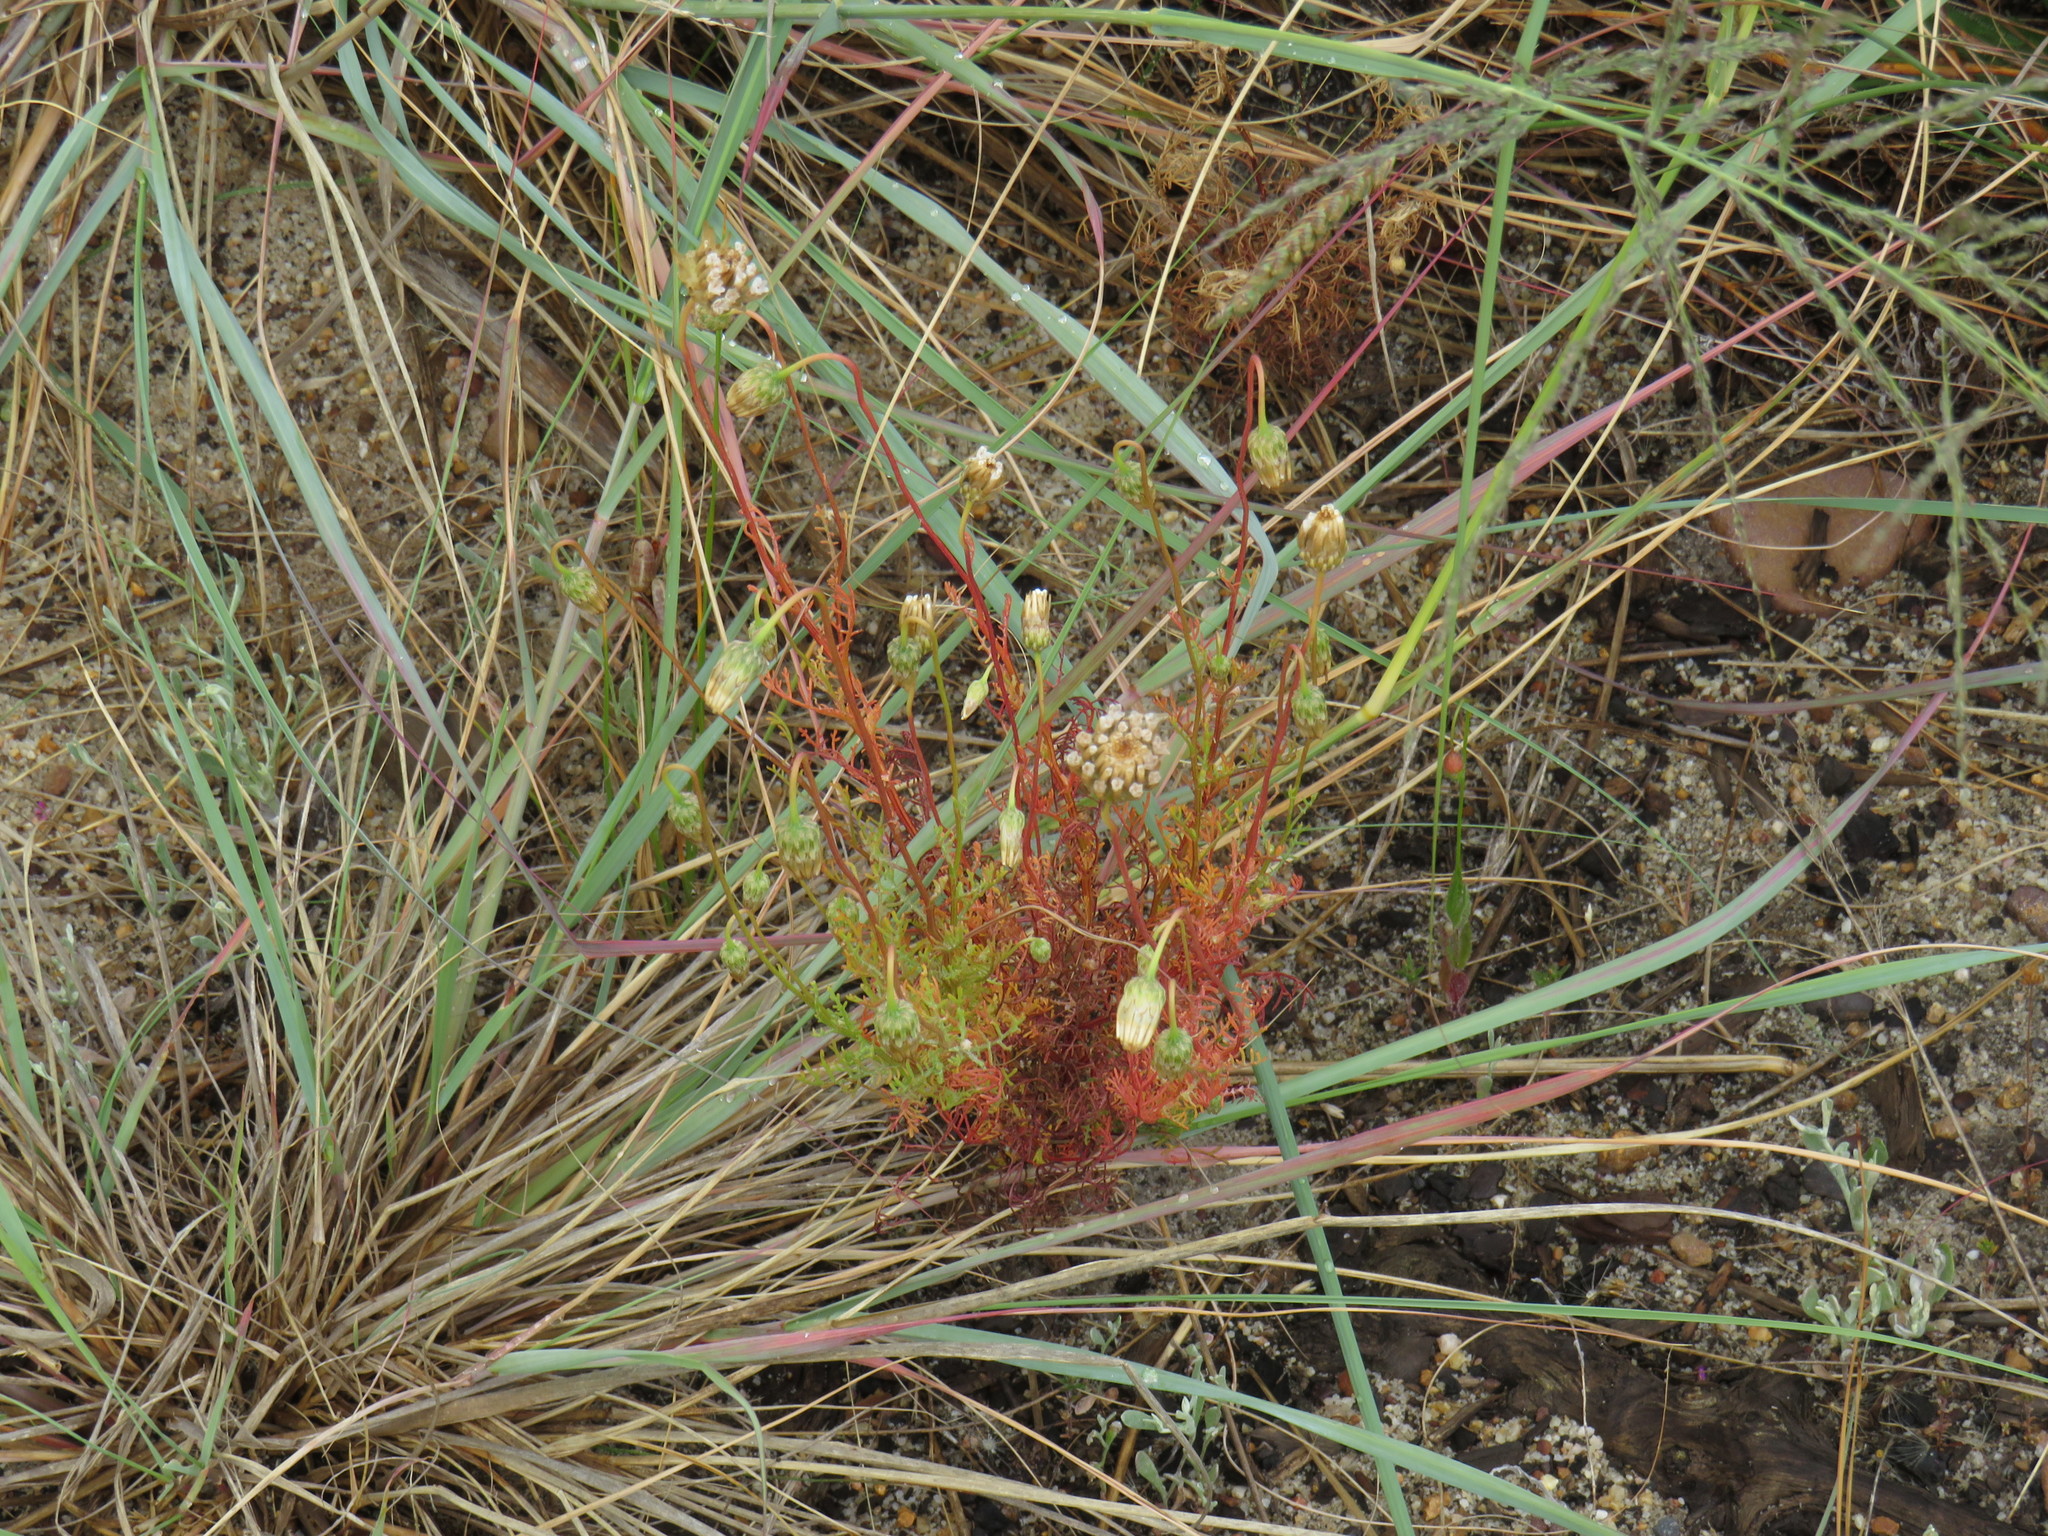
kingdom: Plantae
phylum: Tracheophyta
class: Liliopsida
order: Poales
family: Poaceae
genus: Eragrostis
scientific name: Eragrostis curvula
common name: African love-grass
